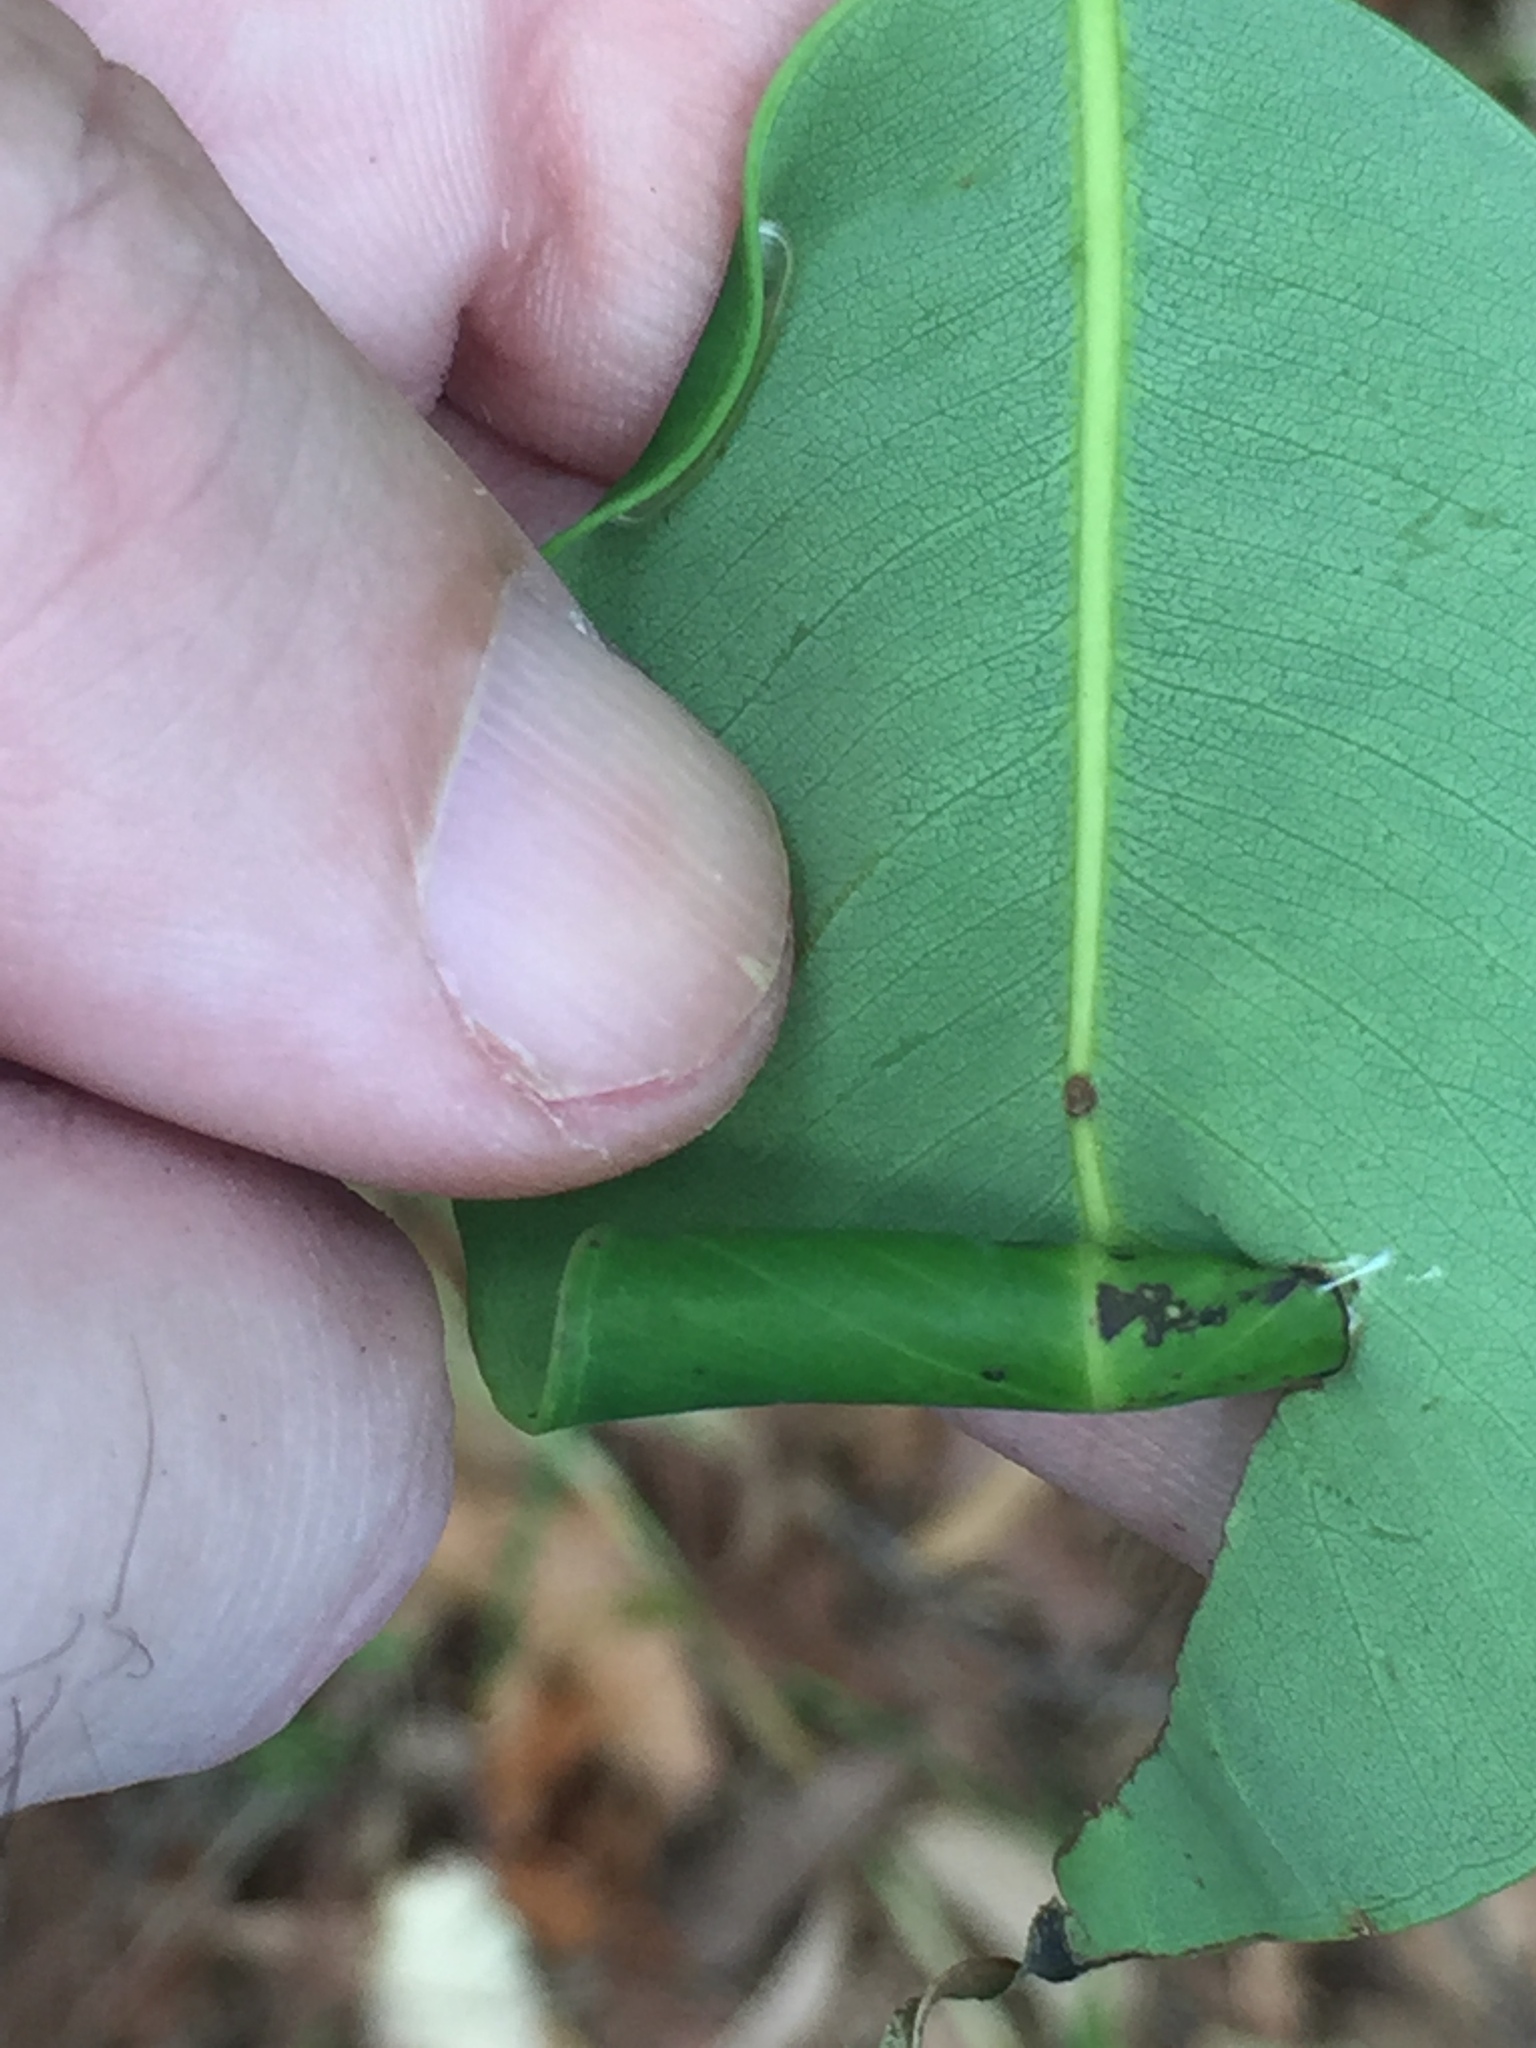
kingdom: Animalia
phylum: Arthropoda
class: Insecta
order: Lepidoptera
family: Gracillariidae
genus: Macarostola
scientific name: Macarostola ida
